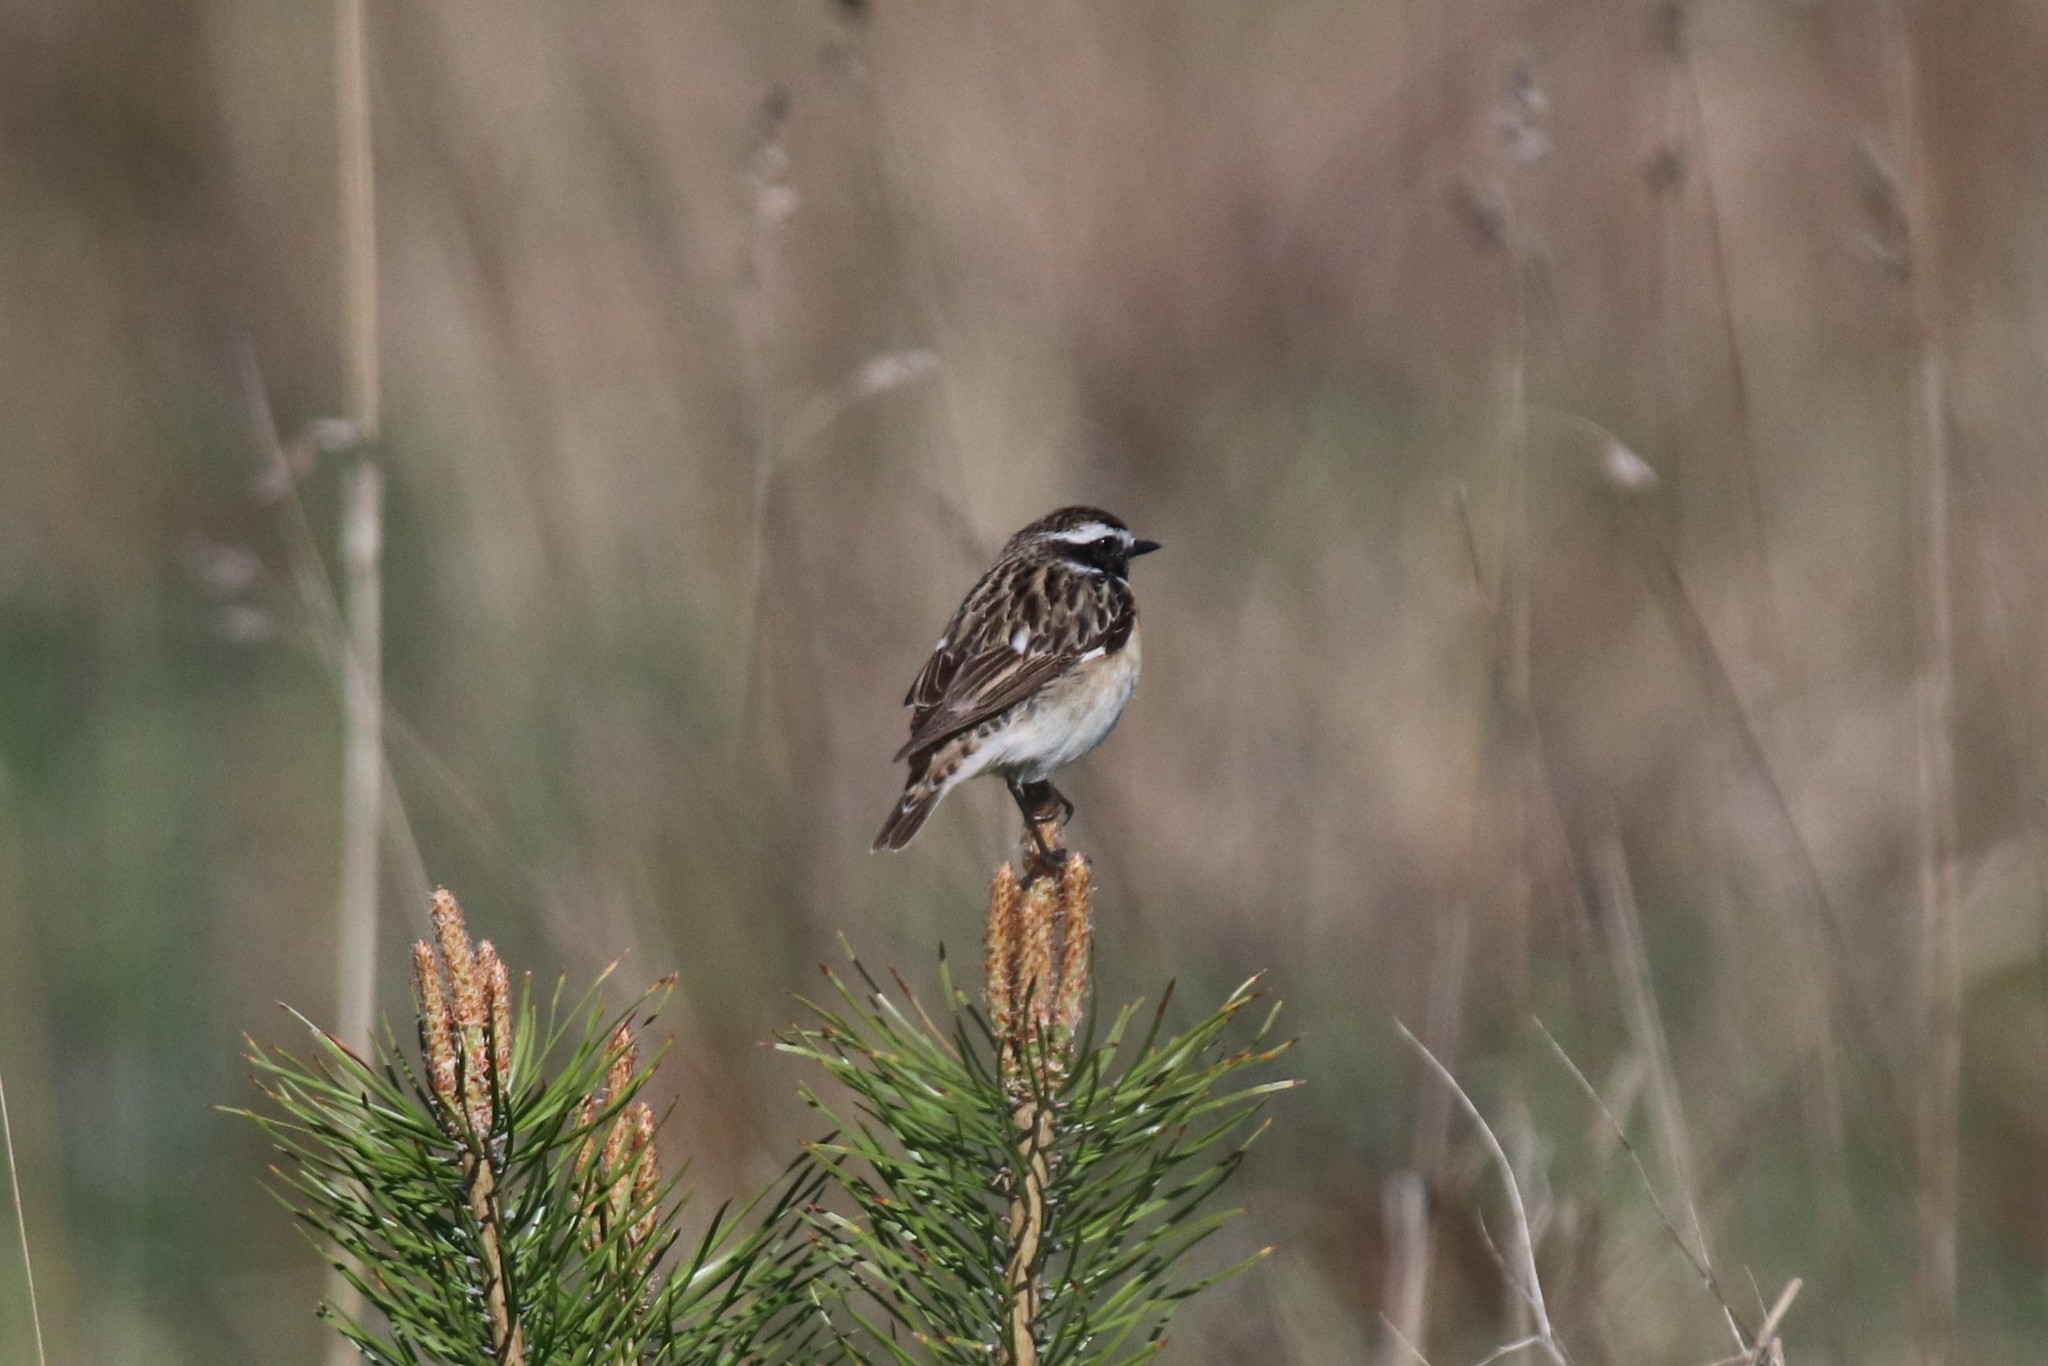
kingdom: Animalia
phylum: Chordata
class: Aves
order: Passeriformes
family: Muscicapidae
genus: Saxicola
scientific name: Saxicola rubetra
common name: Whinchat
